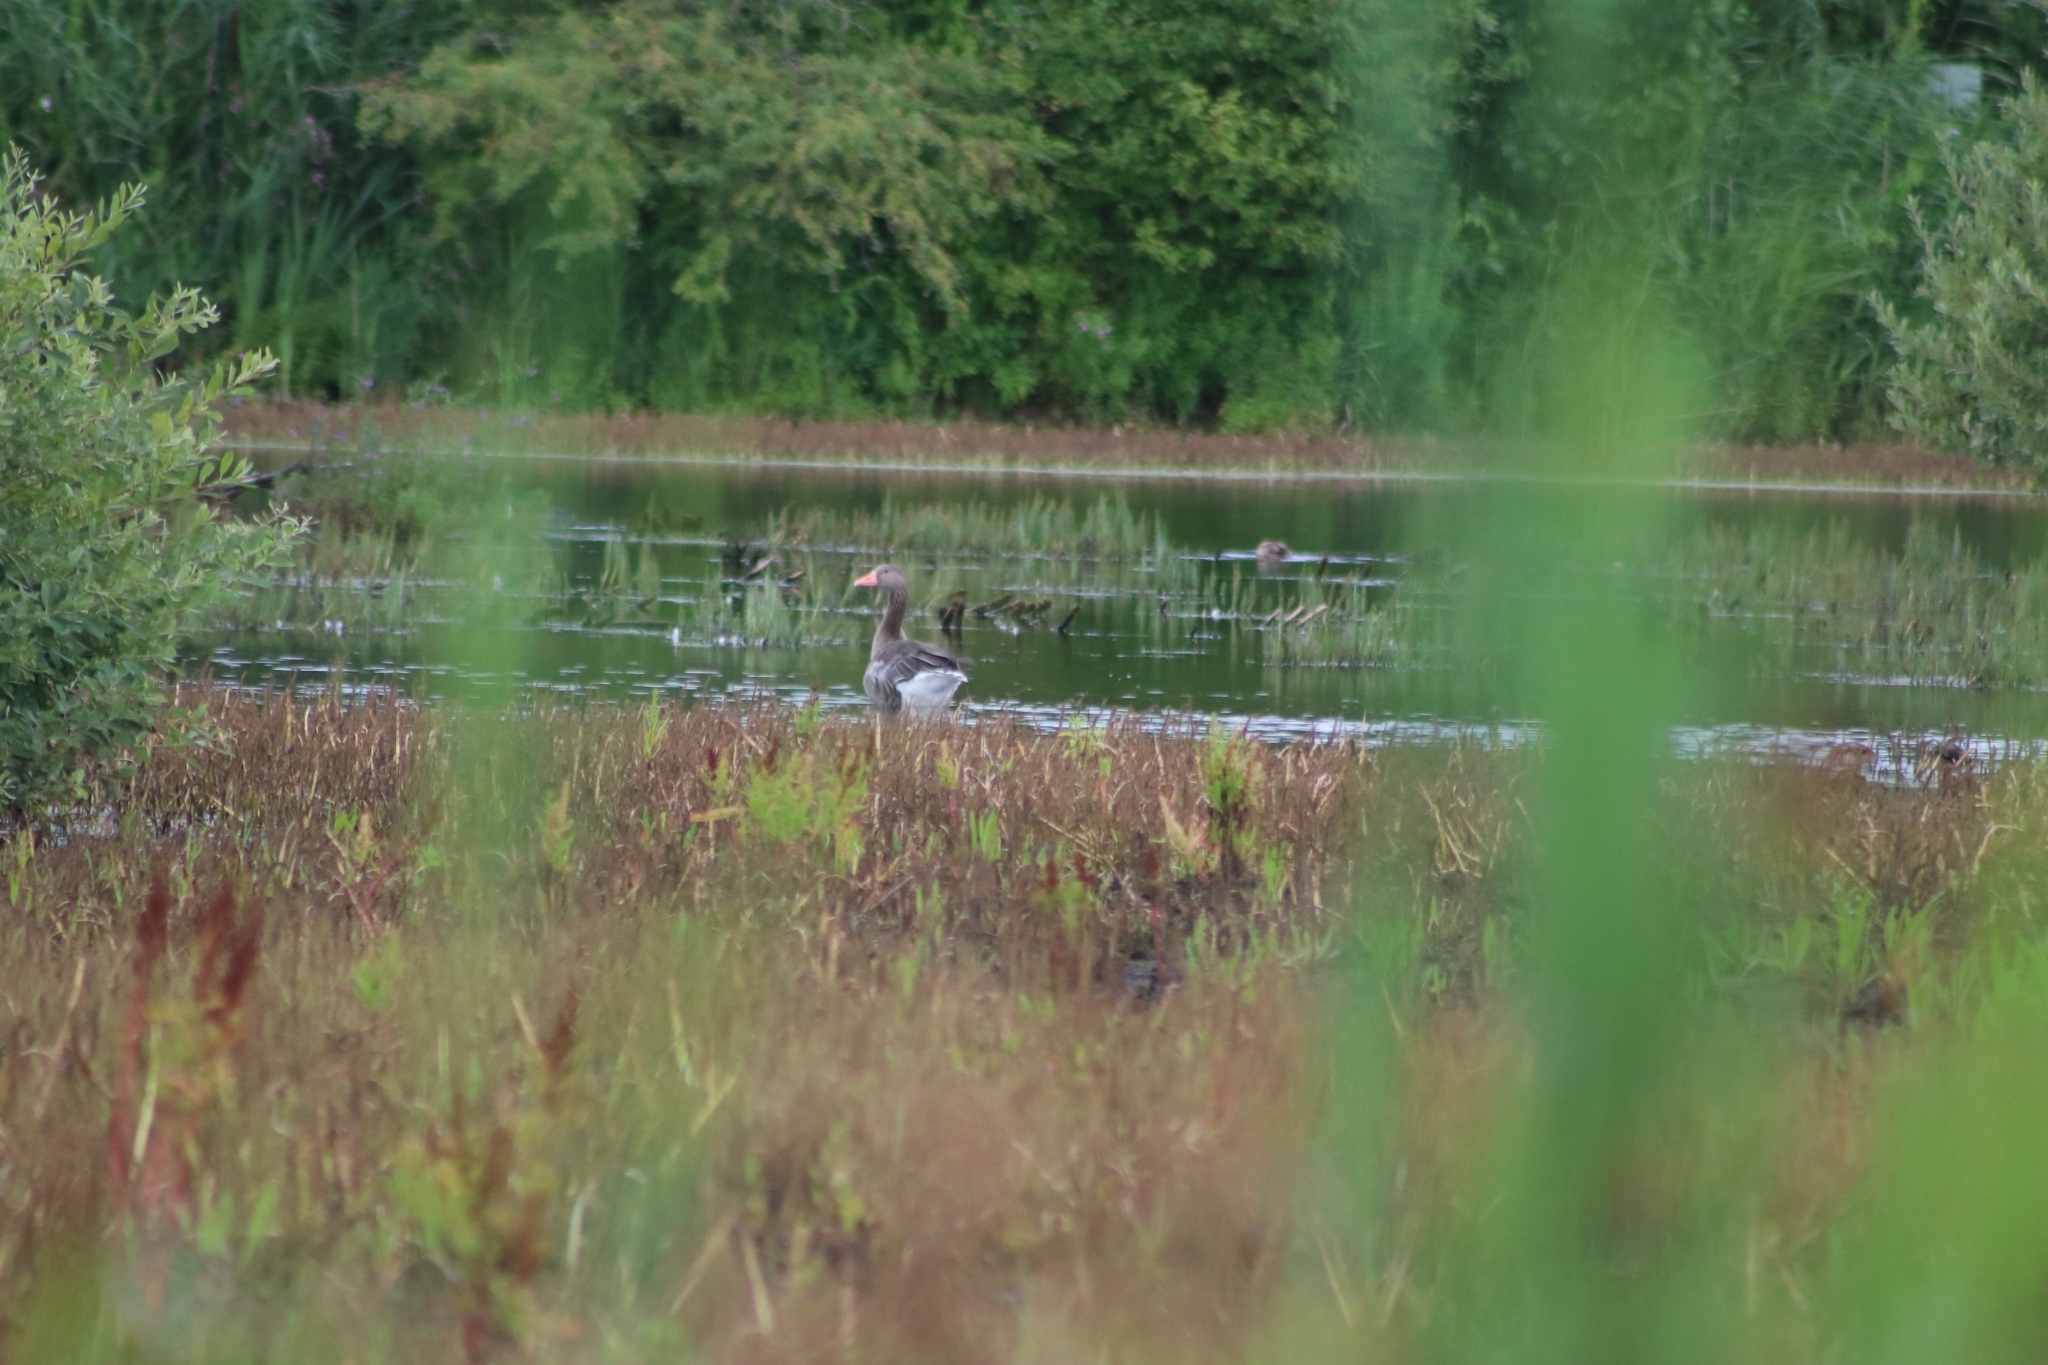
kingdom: Animalia
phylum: Chordata
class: Aves
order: Anseriformes
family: Anatidae
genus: Anser
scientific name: Anser anser
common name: Greylag goose
